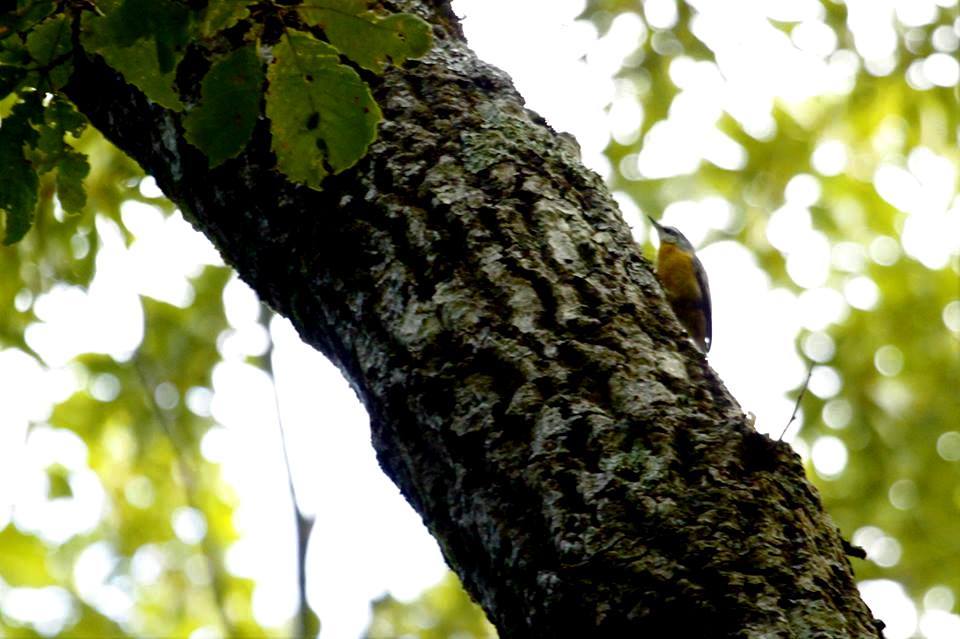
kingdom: Animalia
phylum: Chordata
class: Aves
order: Passeriformes
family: Sittidae
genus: Sitta
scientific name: Sitta ledanti
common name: Algerian nuthatch
